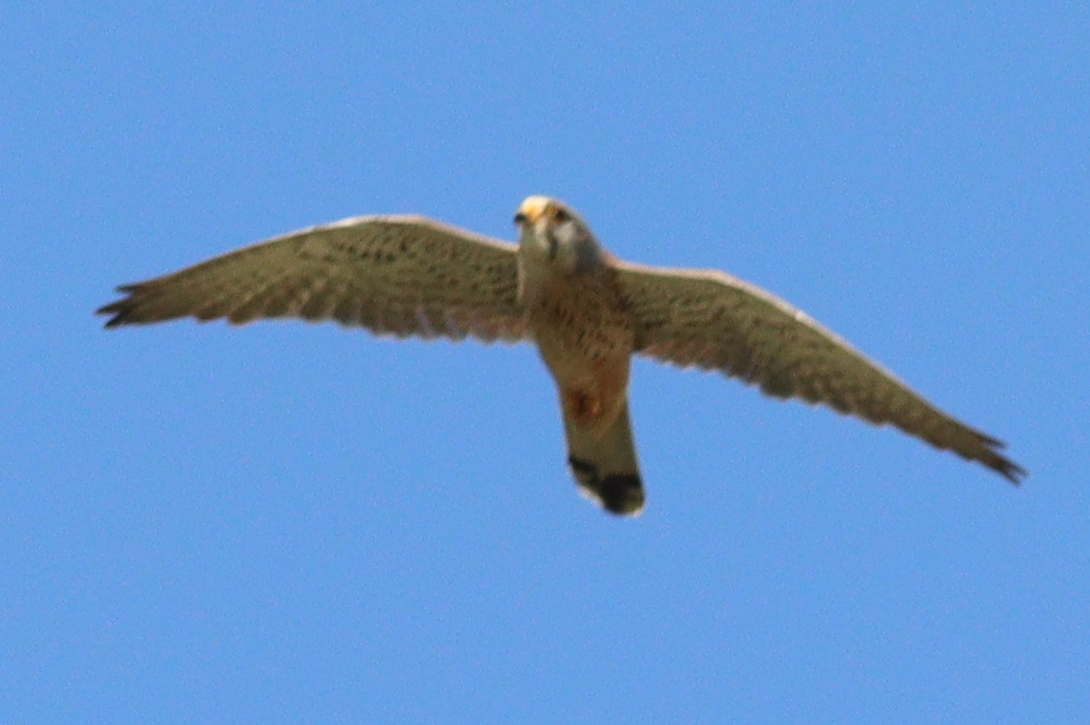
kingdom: Animalia
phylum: Chordata
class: Aves
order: Falconiformes
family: Falconidae
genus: Falco
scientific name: Falco tinnunculus
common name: Common kestrel
